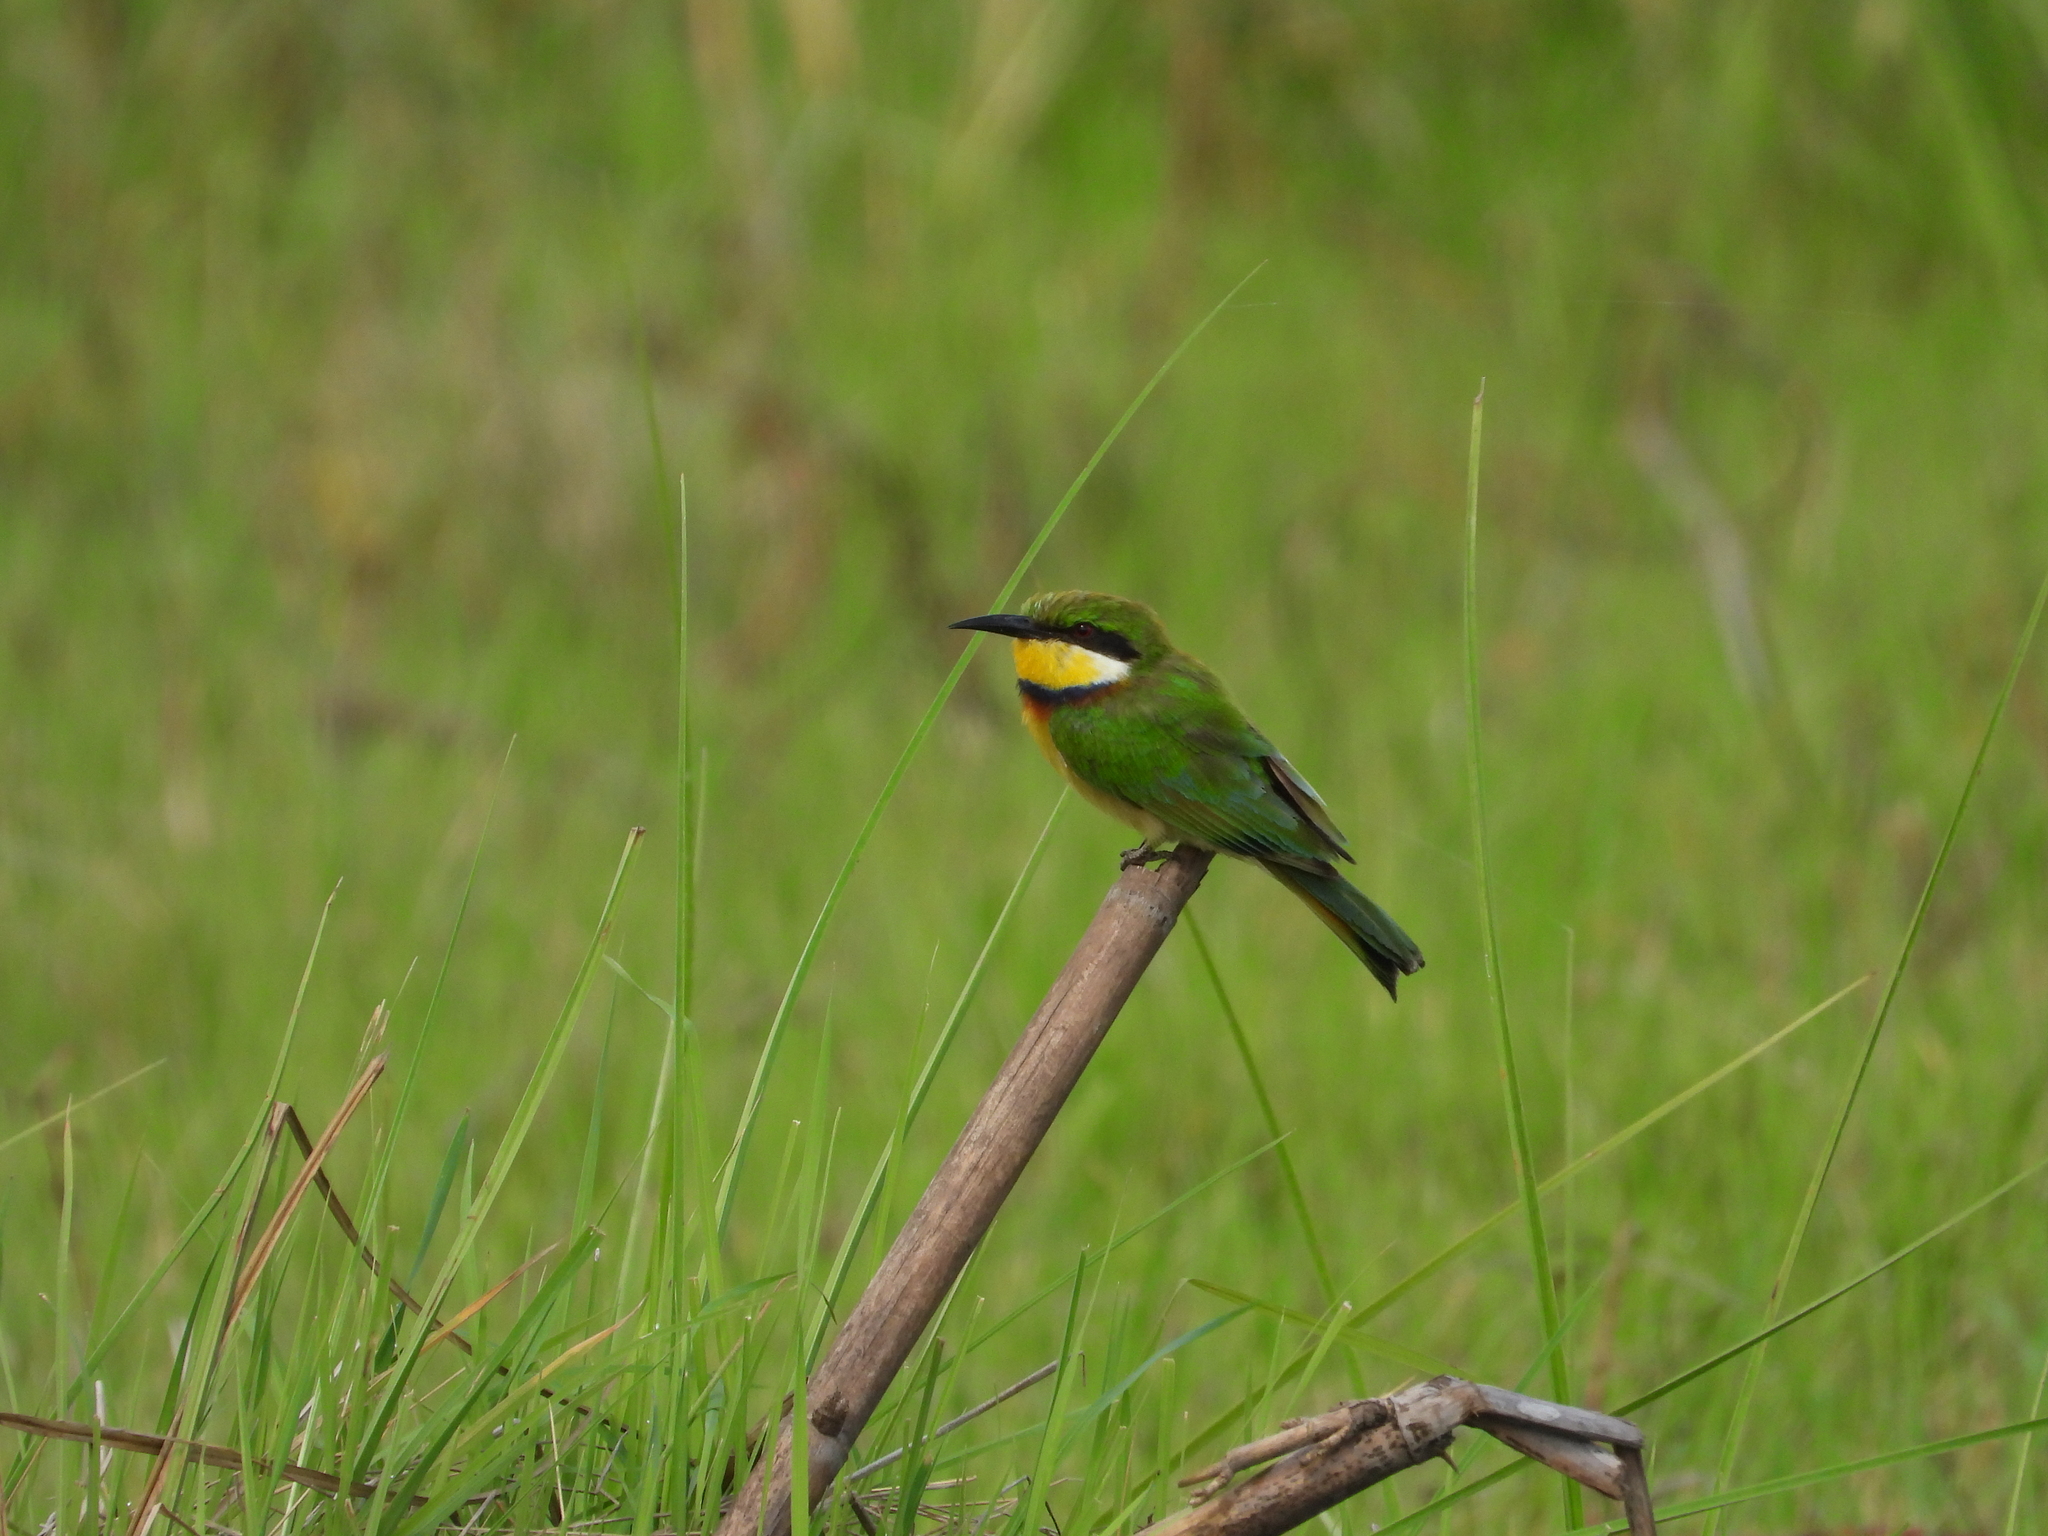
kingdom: Animalia
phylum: Chordata
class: Aves
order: Coraciiformes
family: Meropidae
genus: Merops
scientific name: Merops variegatus
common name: Blue-breasted bee-eater
